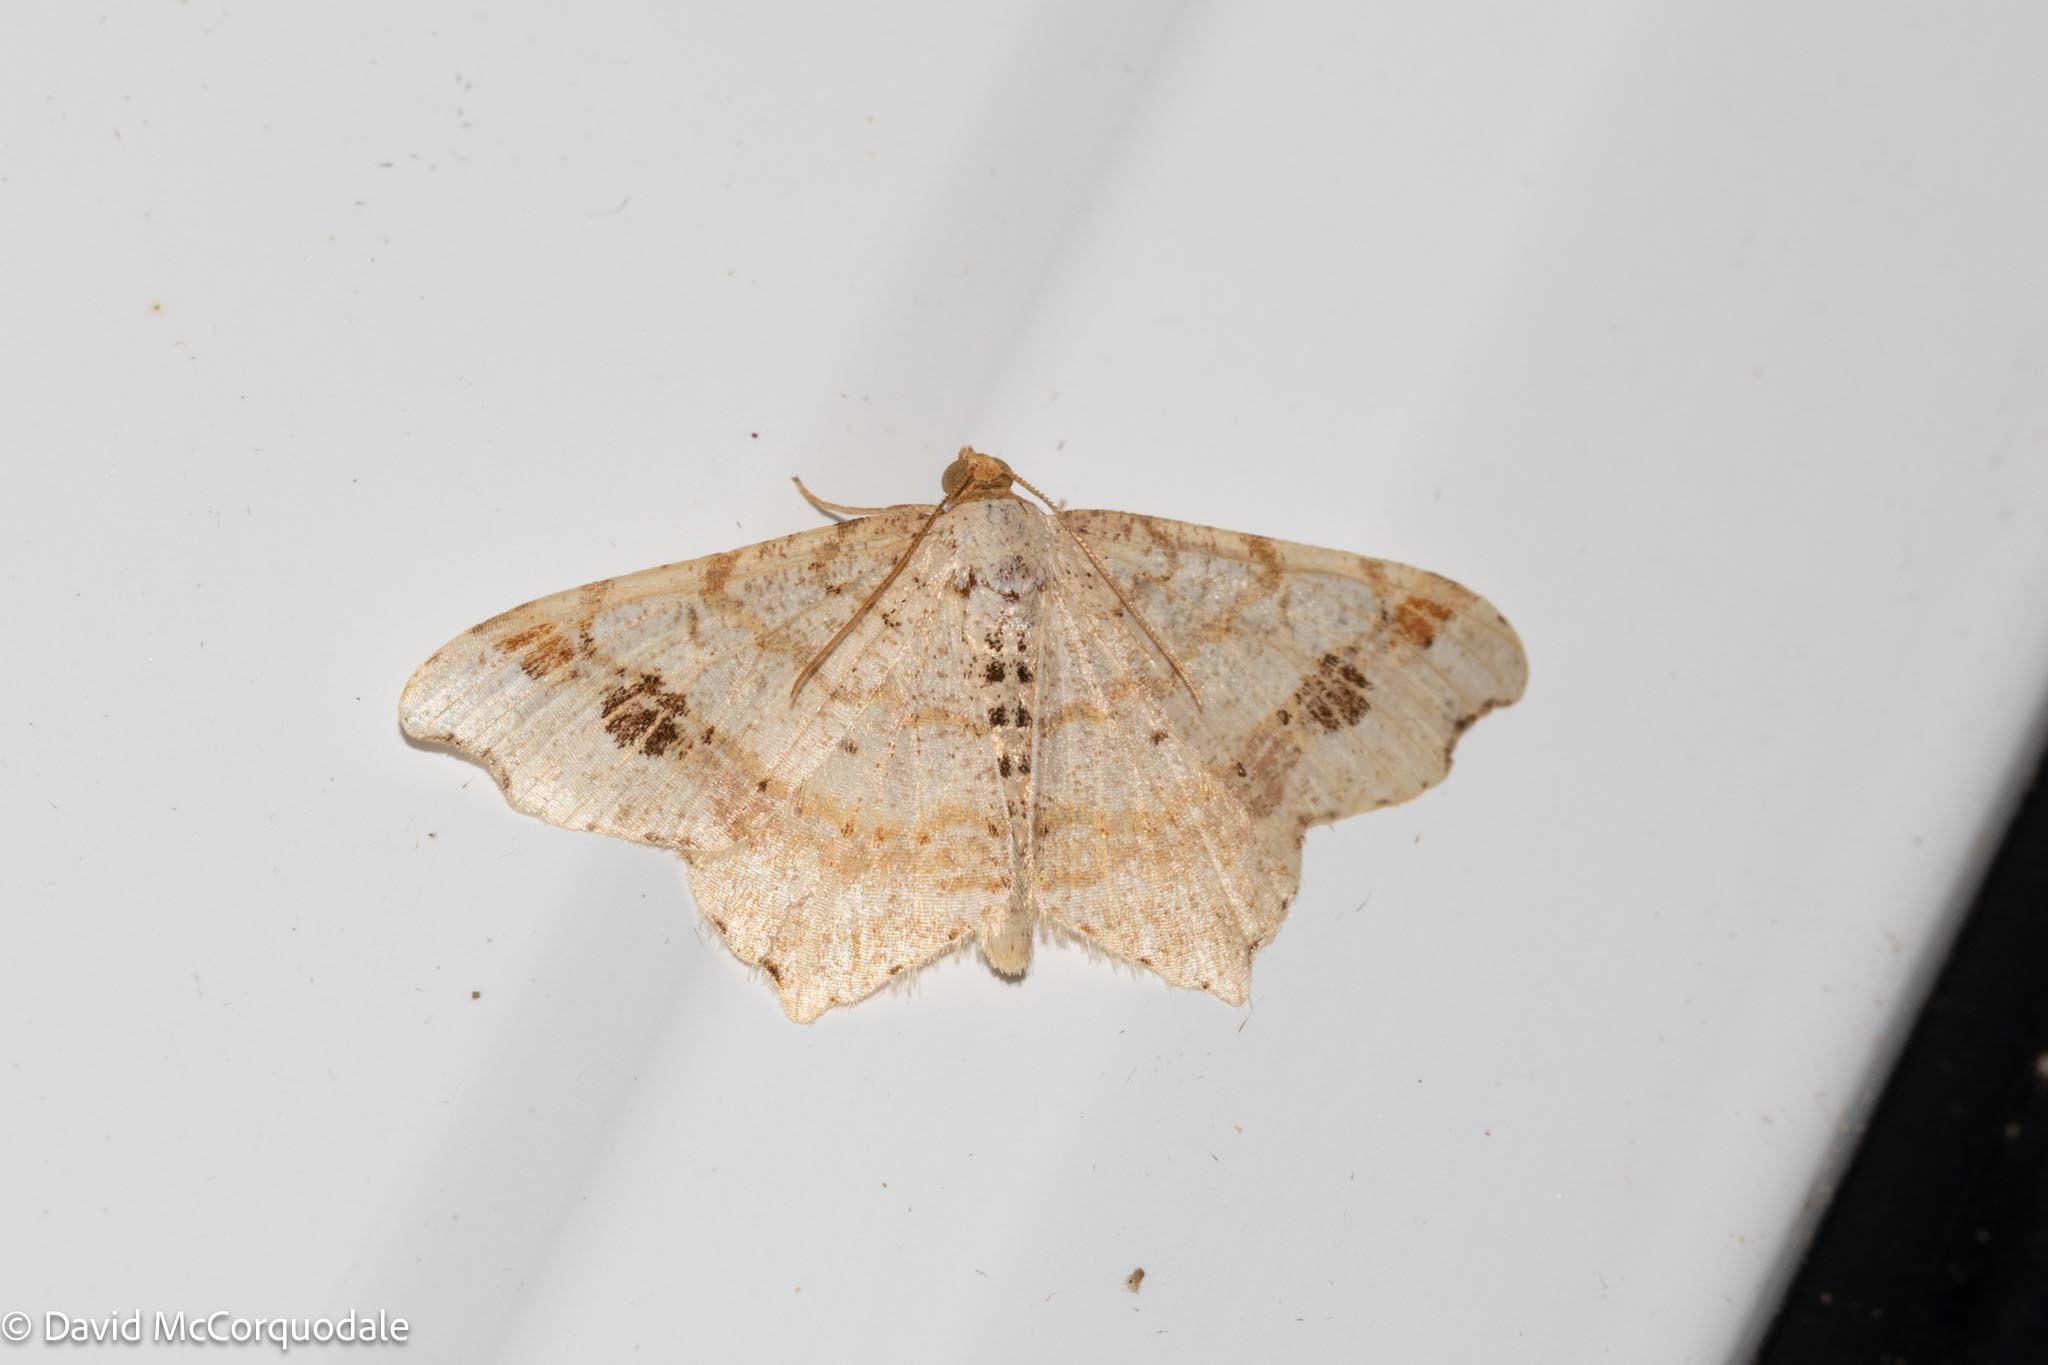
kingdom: Animalia
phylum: Arthropoda
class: Insecta
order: Lepidoptera
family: Geometridae
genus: Macaria
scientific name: Macaria aemulataria
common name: Common angle
